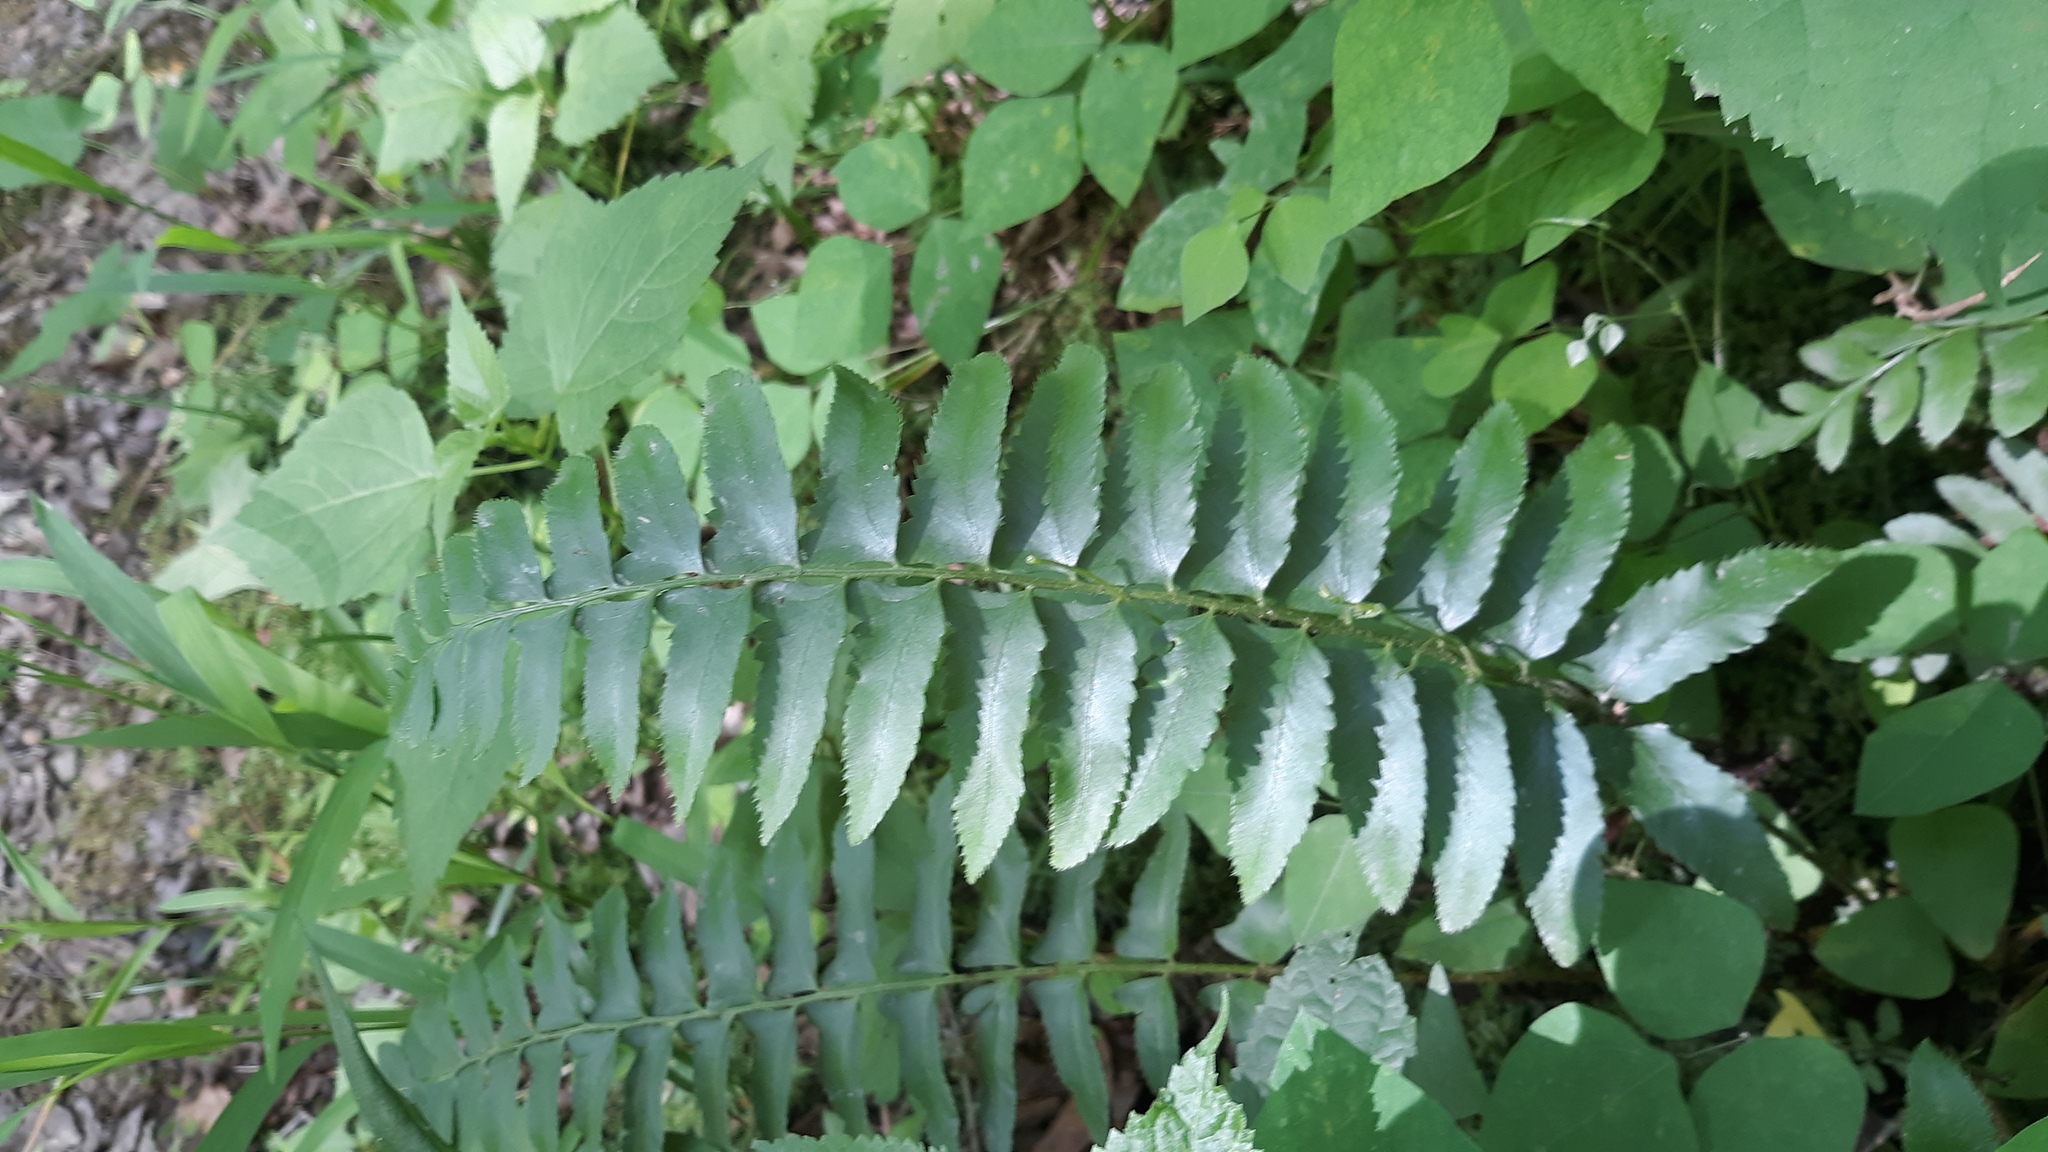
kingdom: Plantae
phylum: Tracheophyta
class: Polypodiopsida
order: Polypodiales
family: Dryopteridaceae
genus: Polystichum
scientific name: Polystichum acrostichoides
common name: Christmas fern
